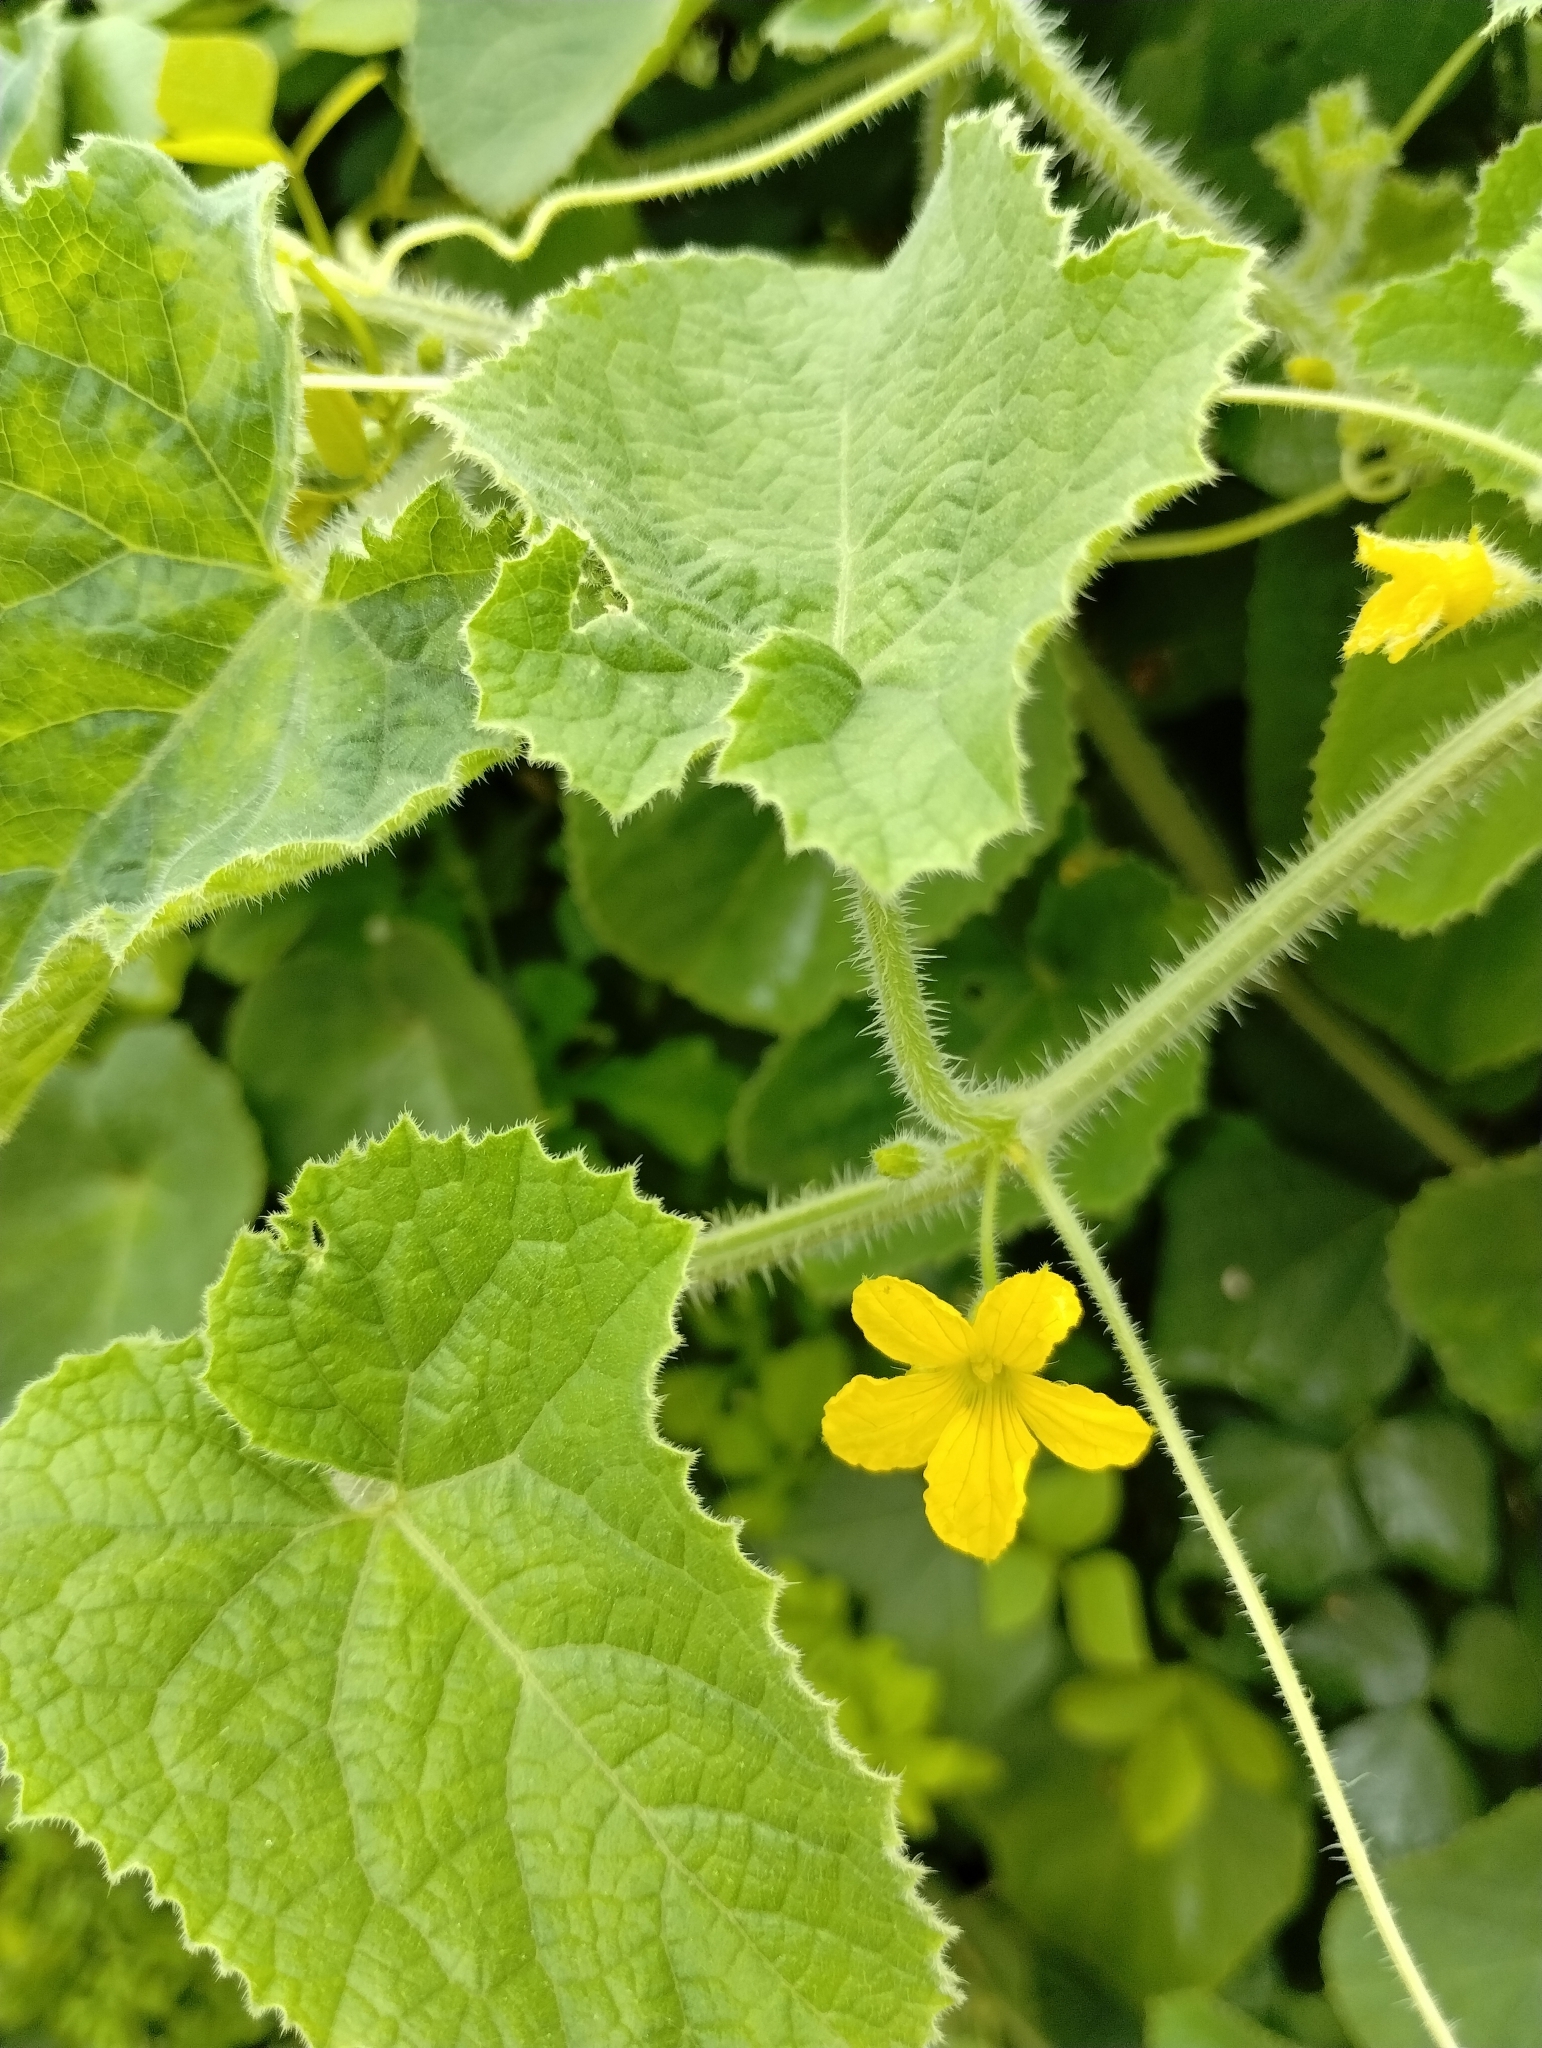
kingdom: Plantae
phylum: Tracheophyta
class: Magnoliopsida
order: Cucurbitales
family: Cucurbitaceae
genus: Cucumis
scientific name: Cucumis dipsaceus
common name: Hedgehog gourd
